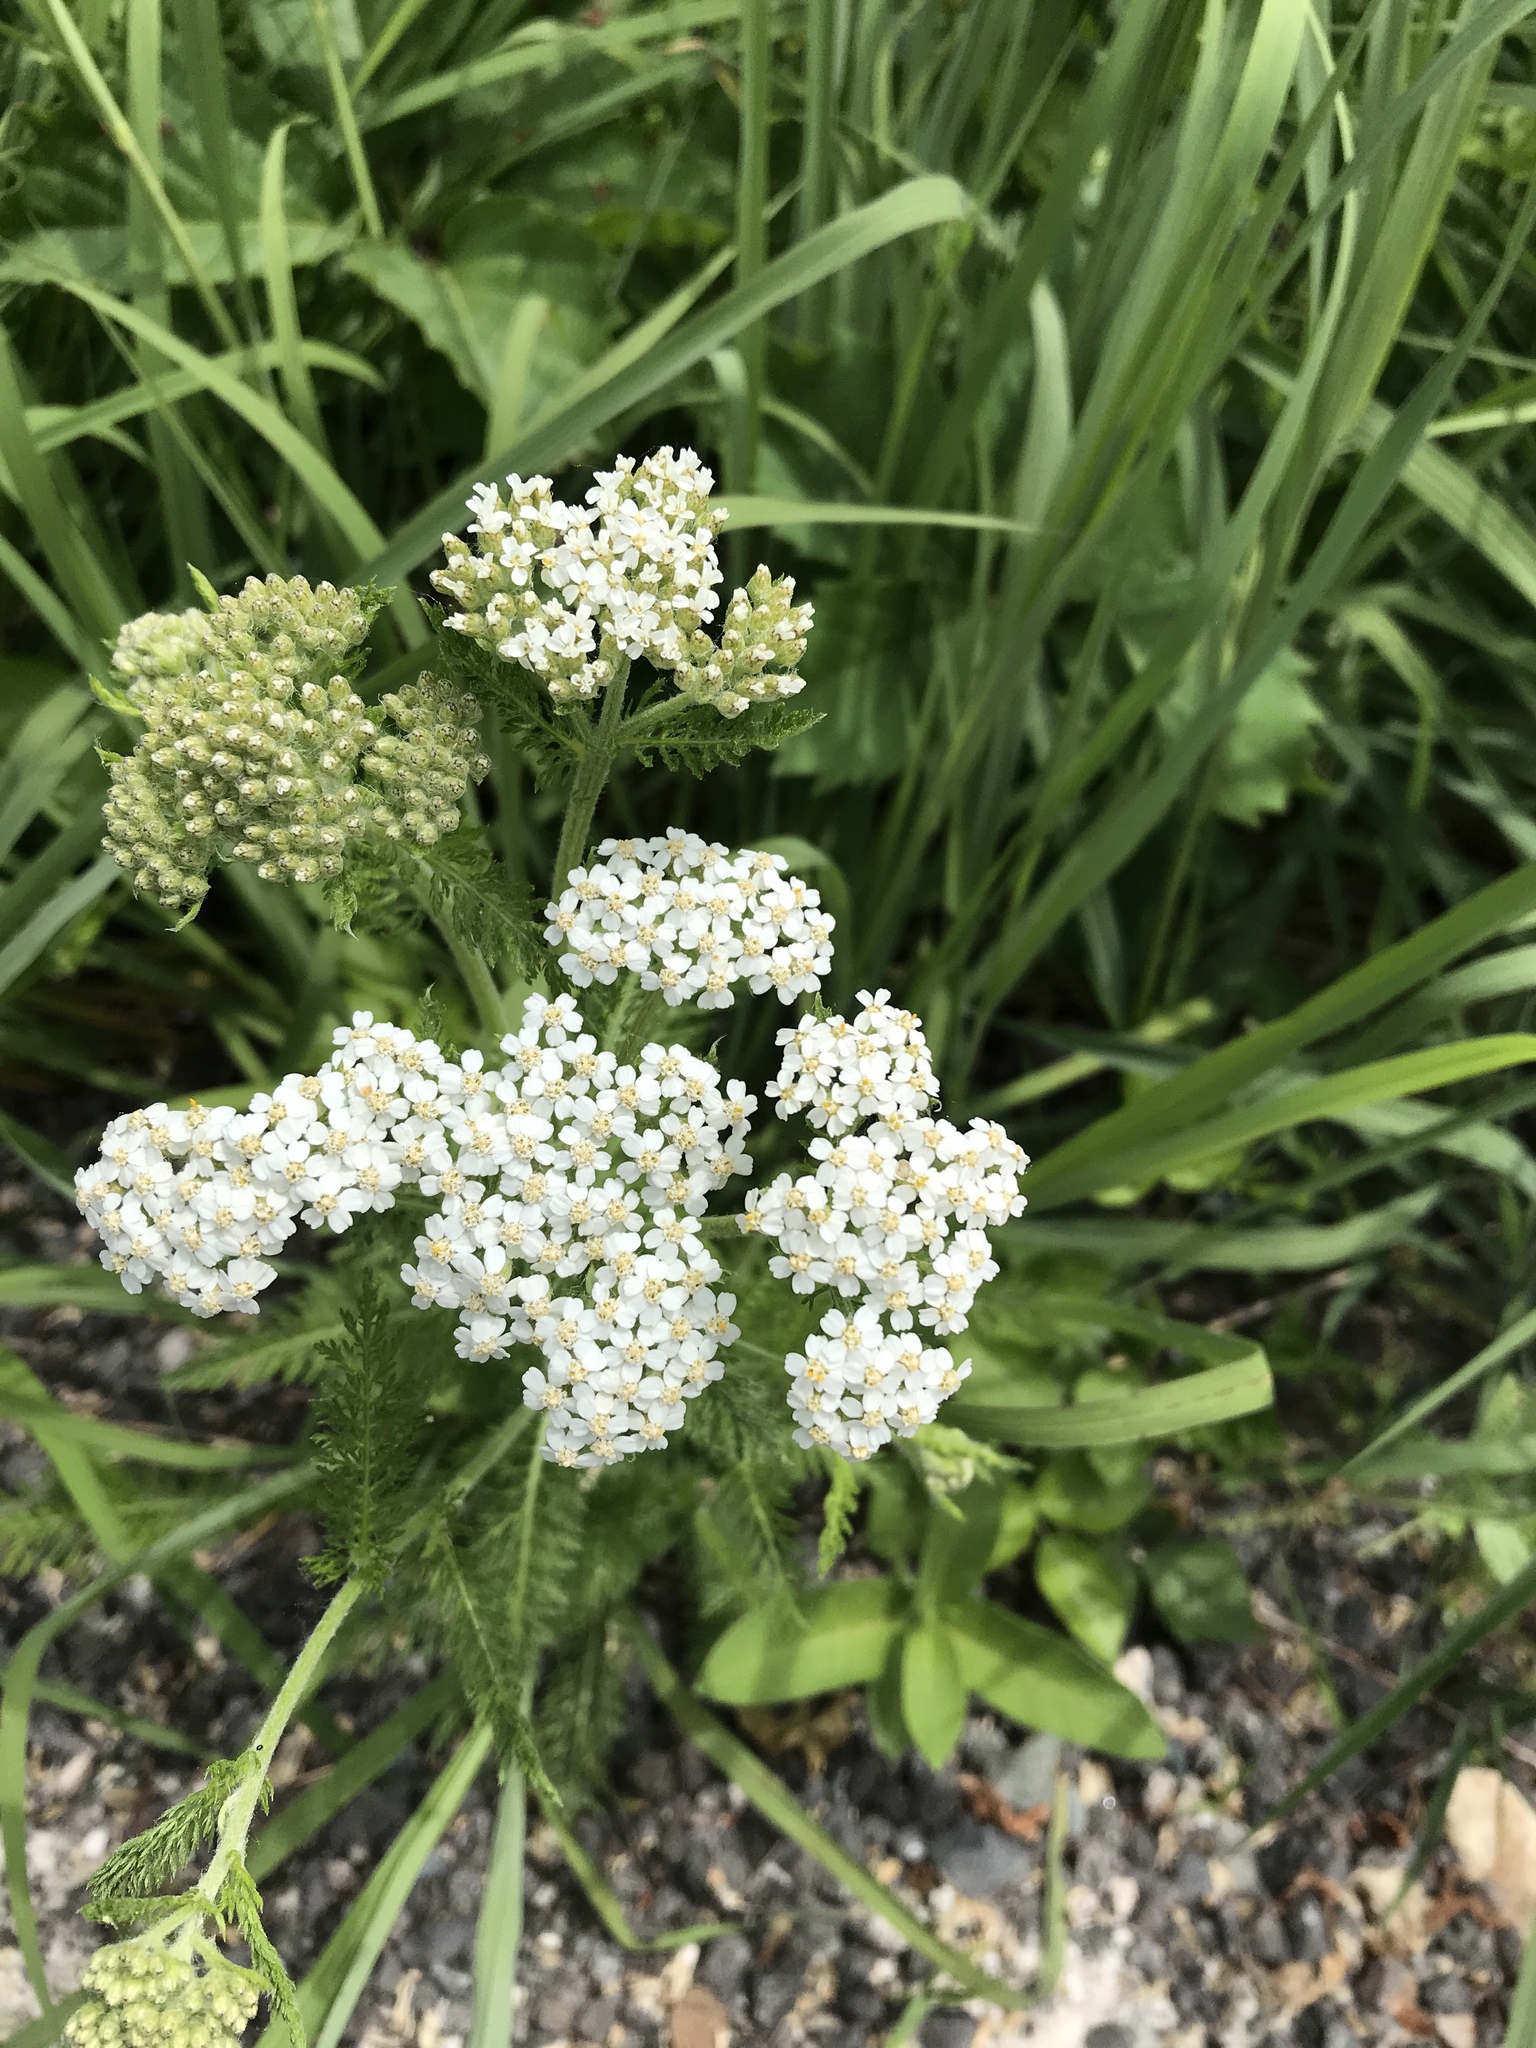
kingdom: Plantae
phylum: Tracheophyta
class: Magnoliopsida
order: Asterales
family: Asteraceae
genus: Achillea
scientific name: Achillea millefolium
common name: Yarrow
